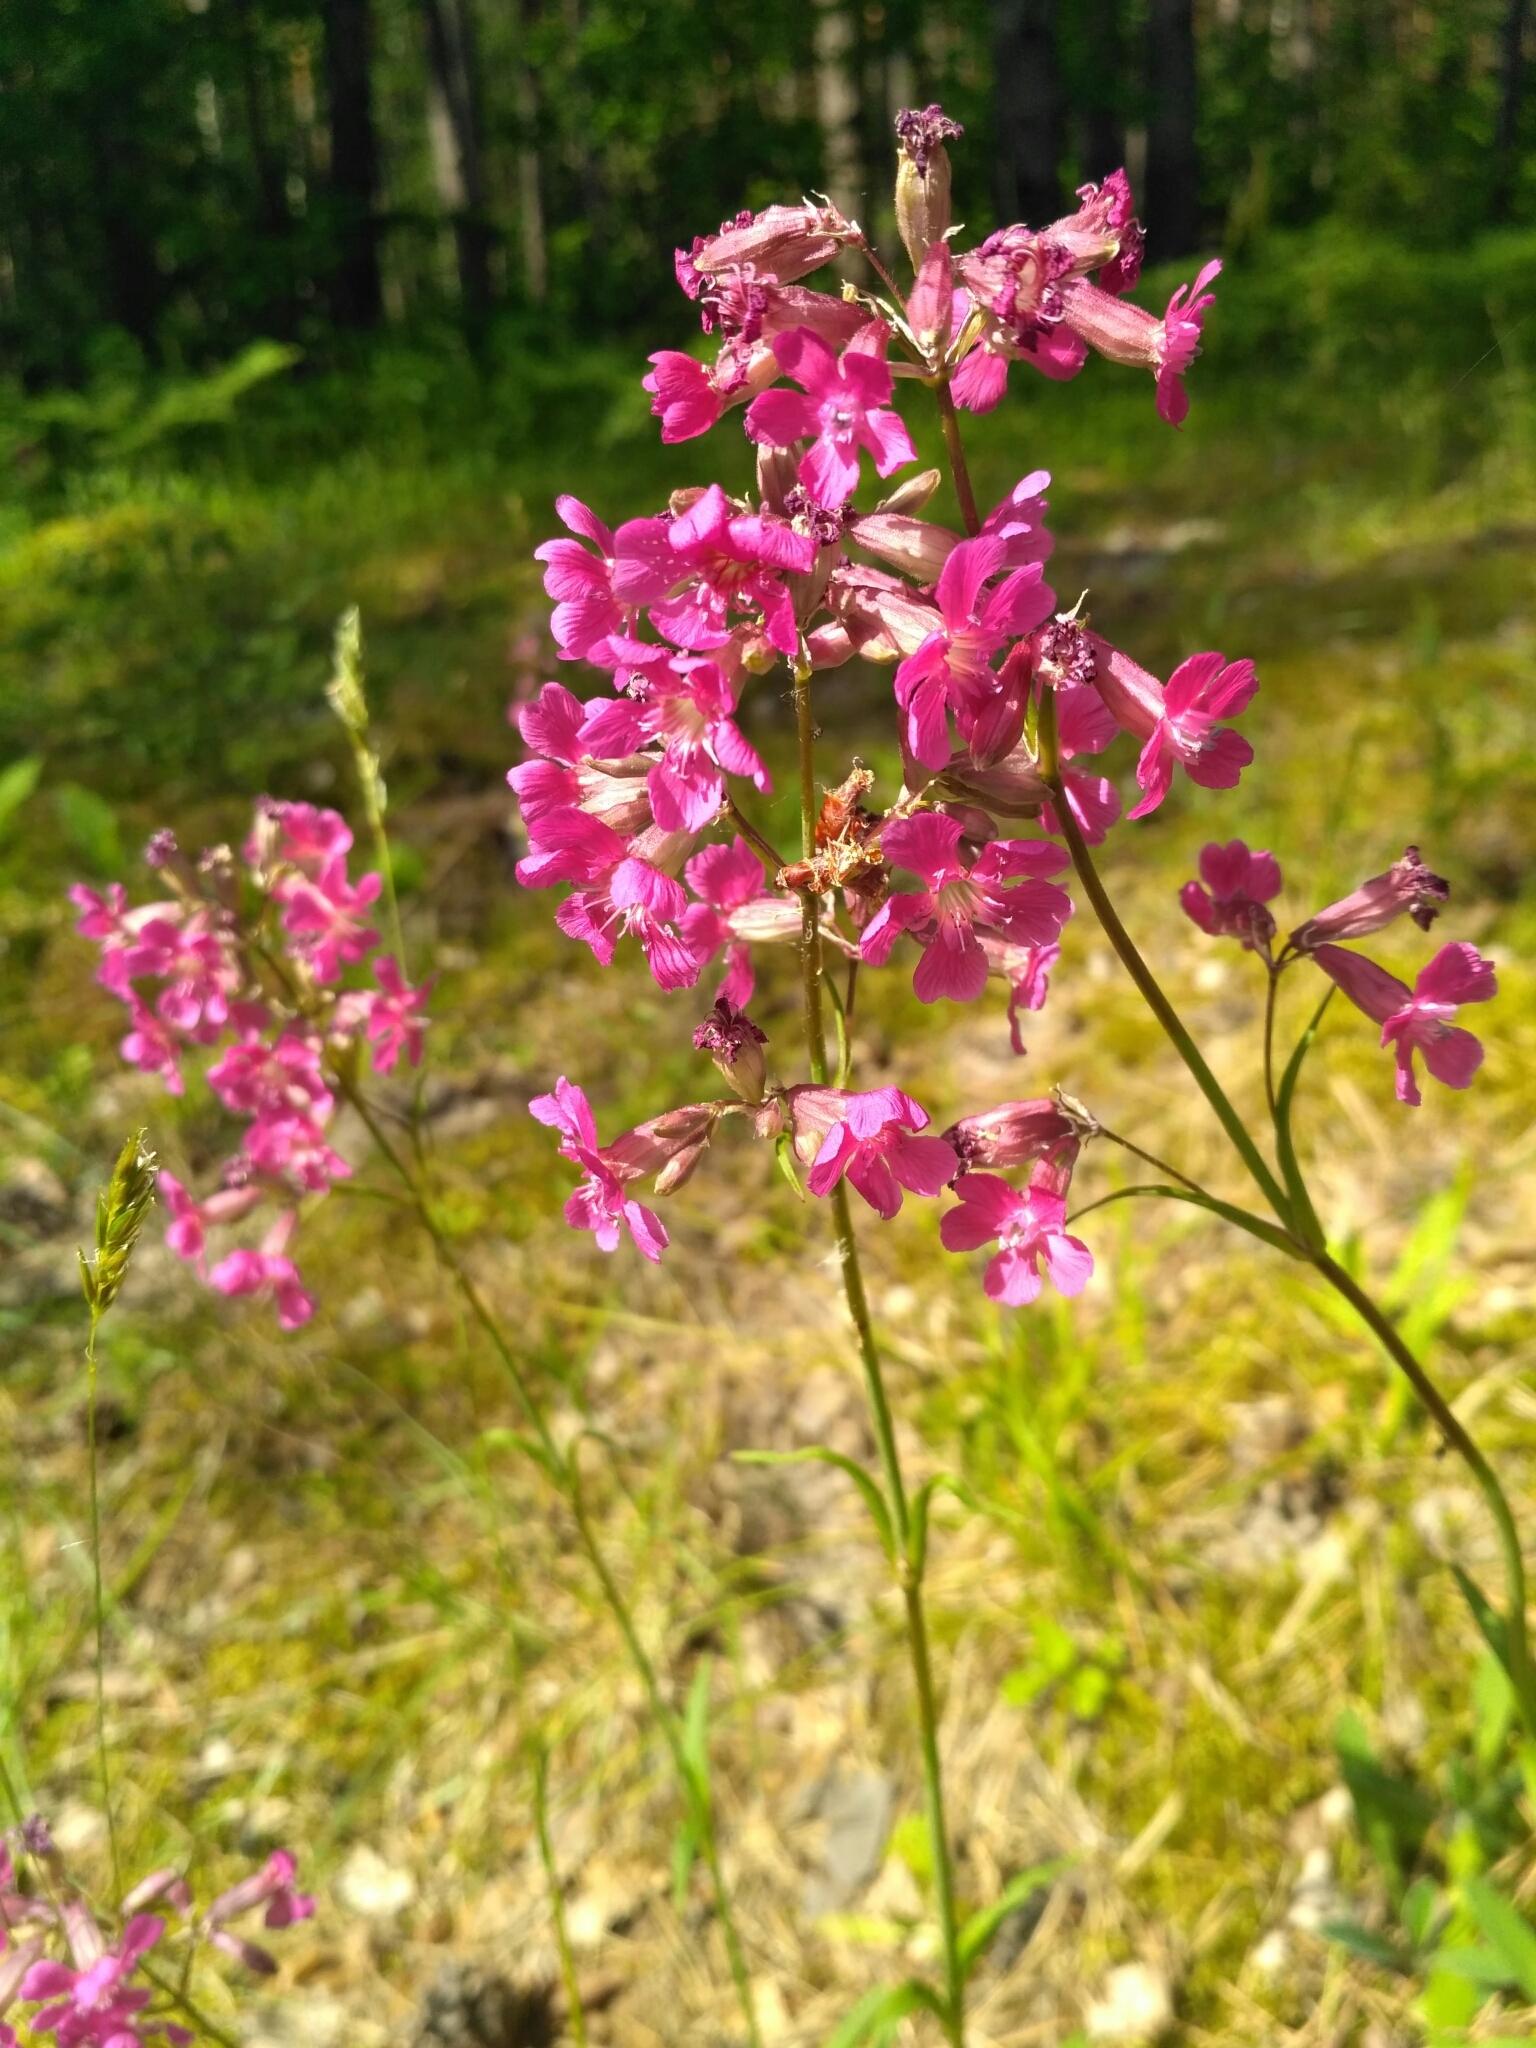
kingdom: Plantae
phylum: Tracheophyta
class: Magnoliopsida
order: Caryophyllales
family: Caryophyllaceae
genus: Viscaria
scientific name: Viscaria vulgaris
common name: Clammy campion
